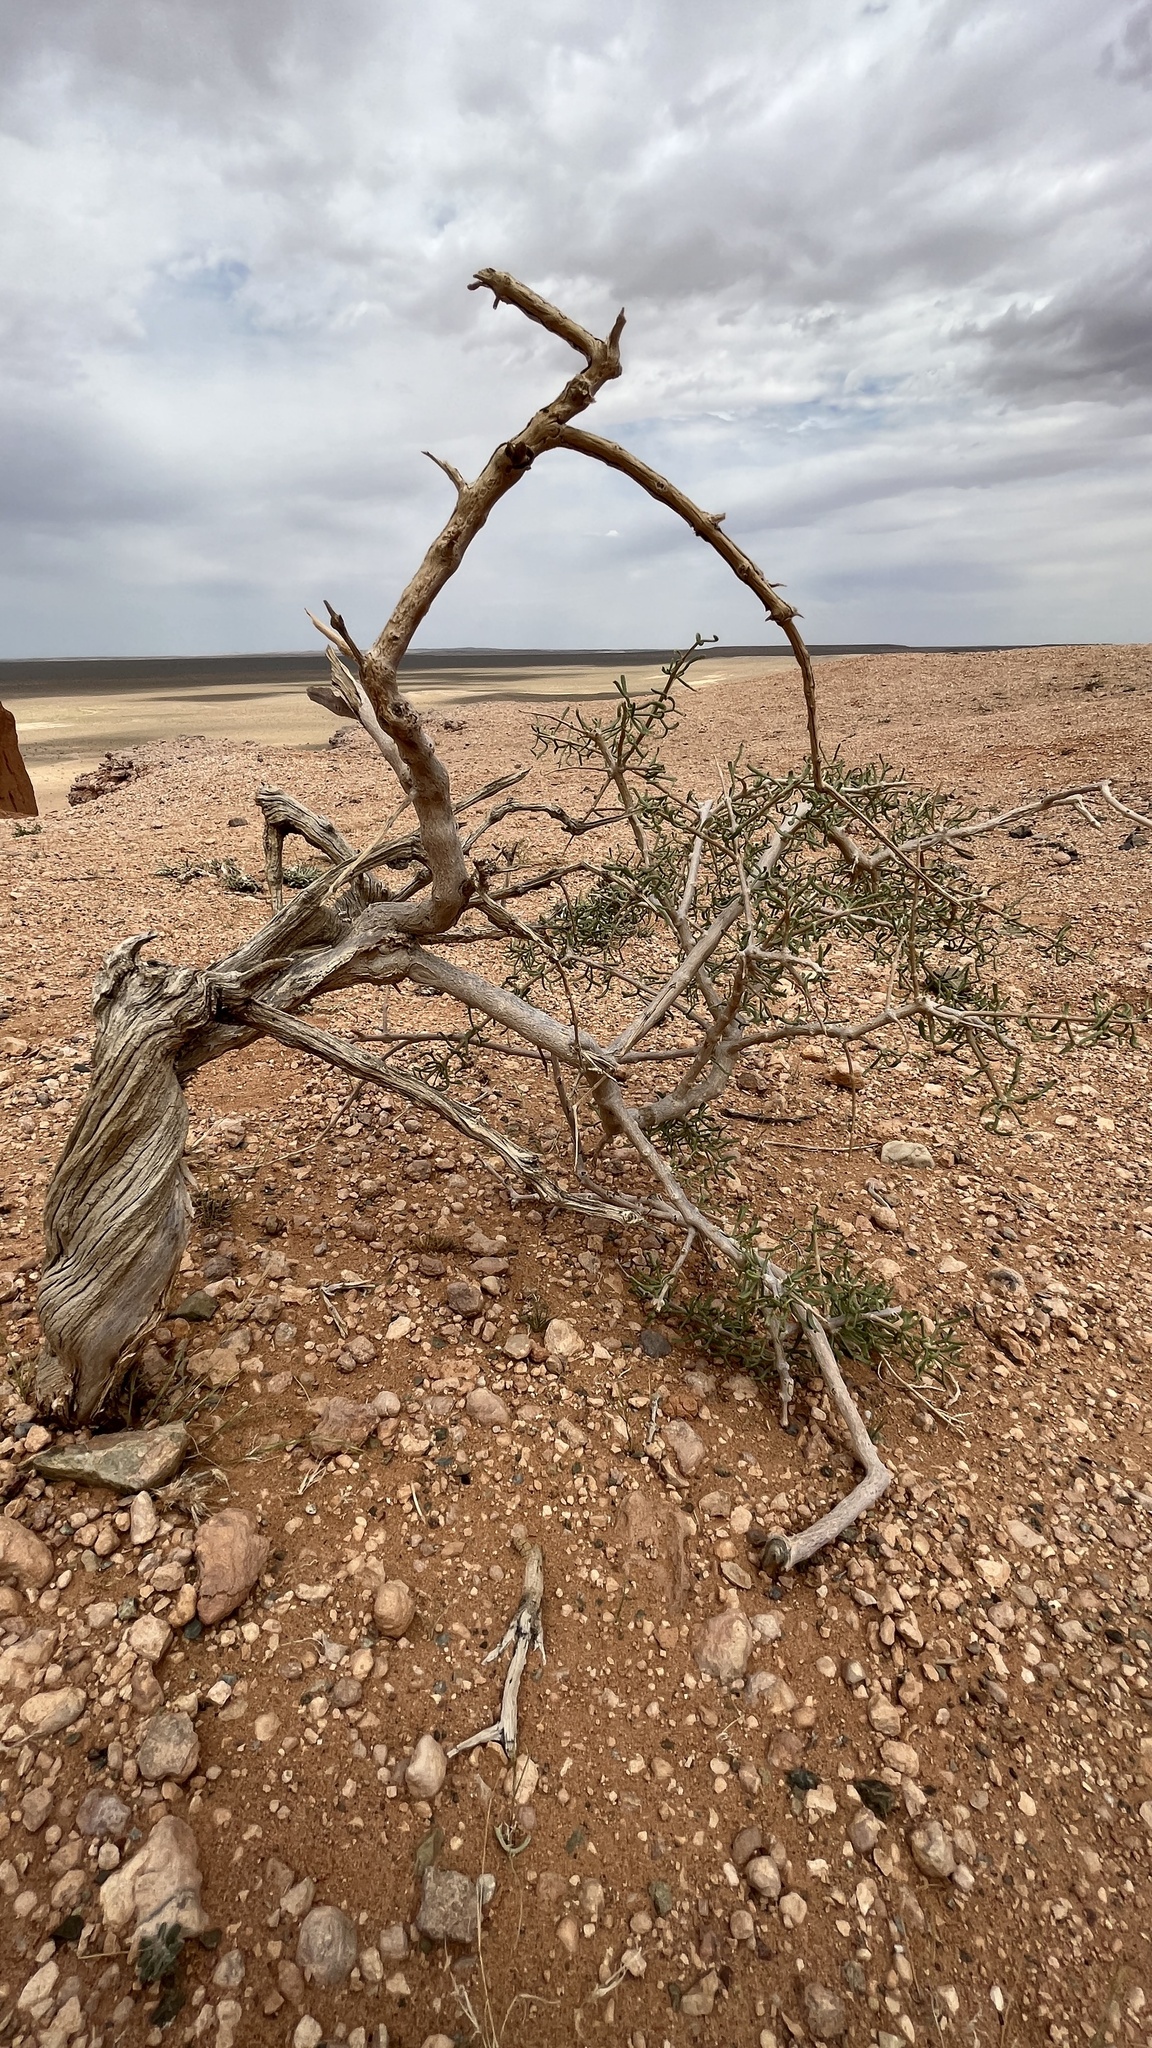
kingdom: Plantae
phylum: Tracheophyta
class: Magnoliopsida
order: Zygophyllales
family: Zygophyllaceae
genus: Zygophyllum
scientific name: Zygophyllum xanthoxylum
